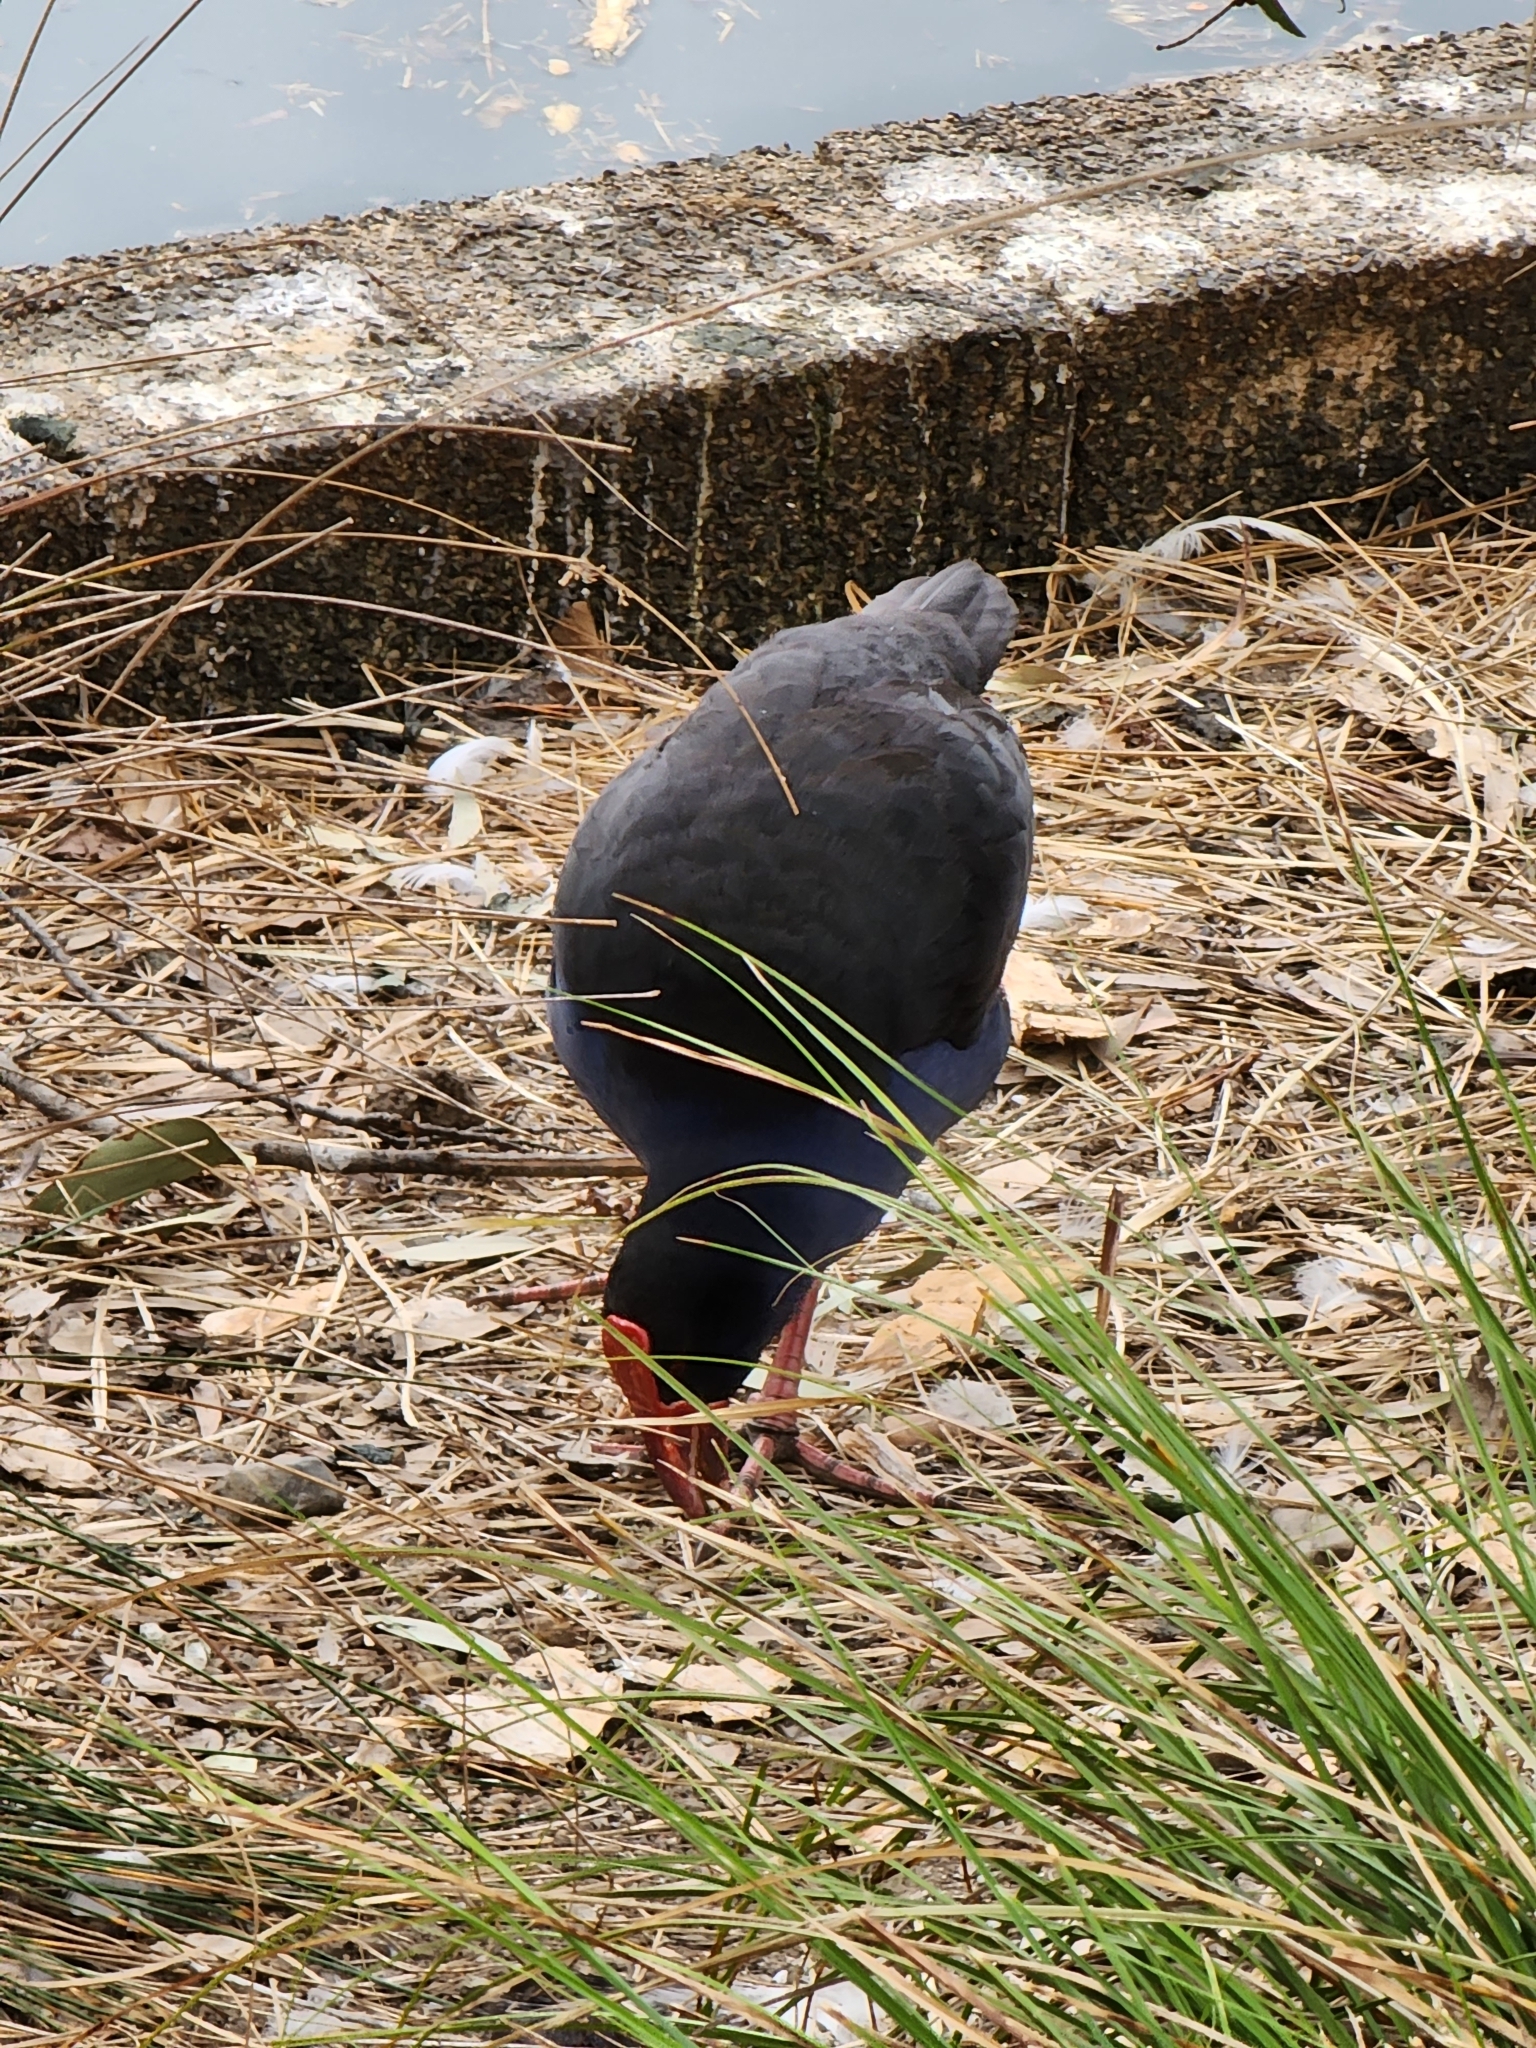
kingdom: Animalia
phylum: Chordata
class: Aves
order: Gruiformes
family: Rallidae
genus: Porphyrio
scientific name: Porphyrio melanotus
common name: Australasian swamphen
